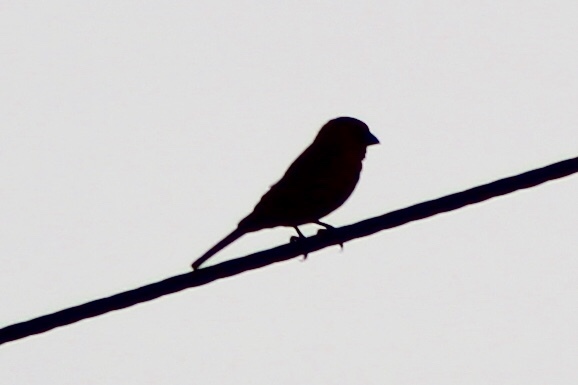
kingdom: Animalia
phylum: Chordata
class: Aves
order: Passeriformes
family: Fringillidae
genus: Haemorhous
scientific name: Haemorhous mexicanus
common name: House finch
